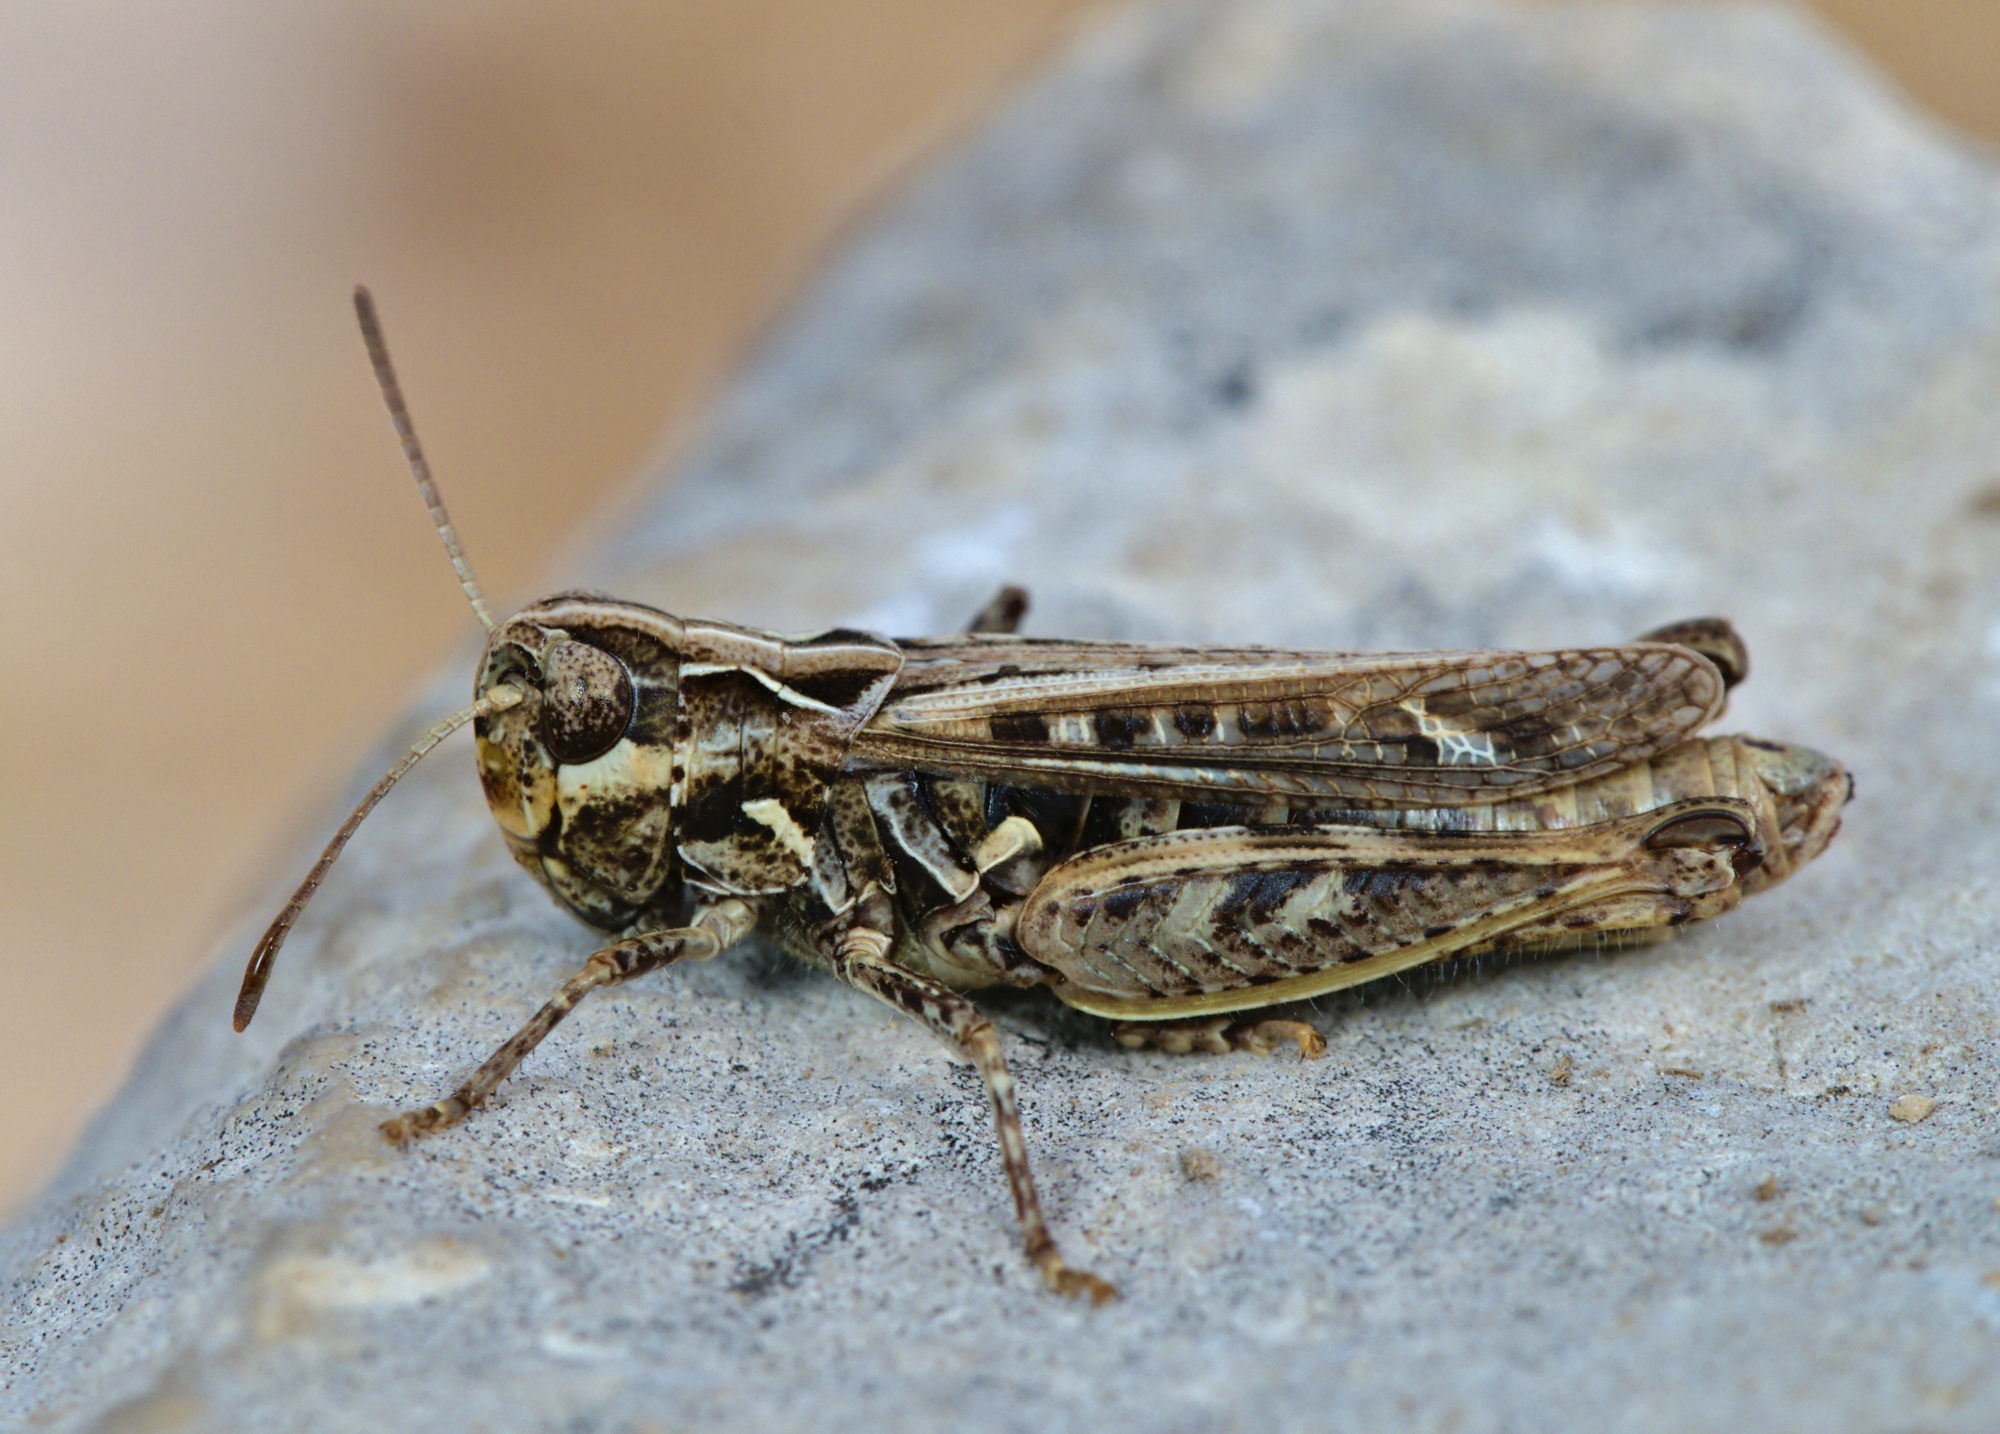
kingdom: Animalia
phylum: Arthropoda
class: Insecta
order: Orthoptera
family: Acrididae
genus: Myrmeleotettix
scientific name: Myrmeleotettix maculatus
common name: Mottled grasshopper
